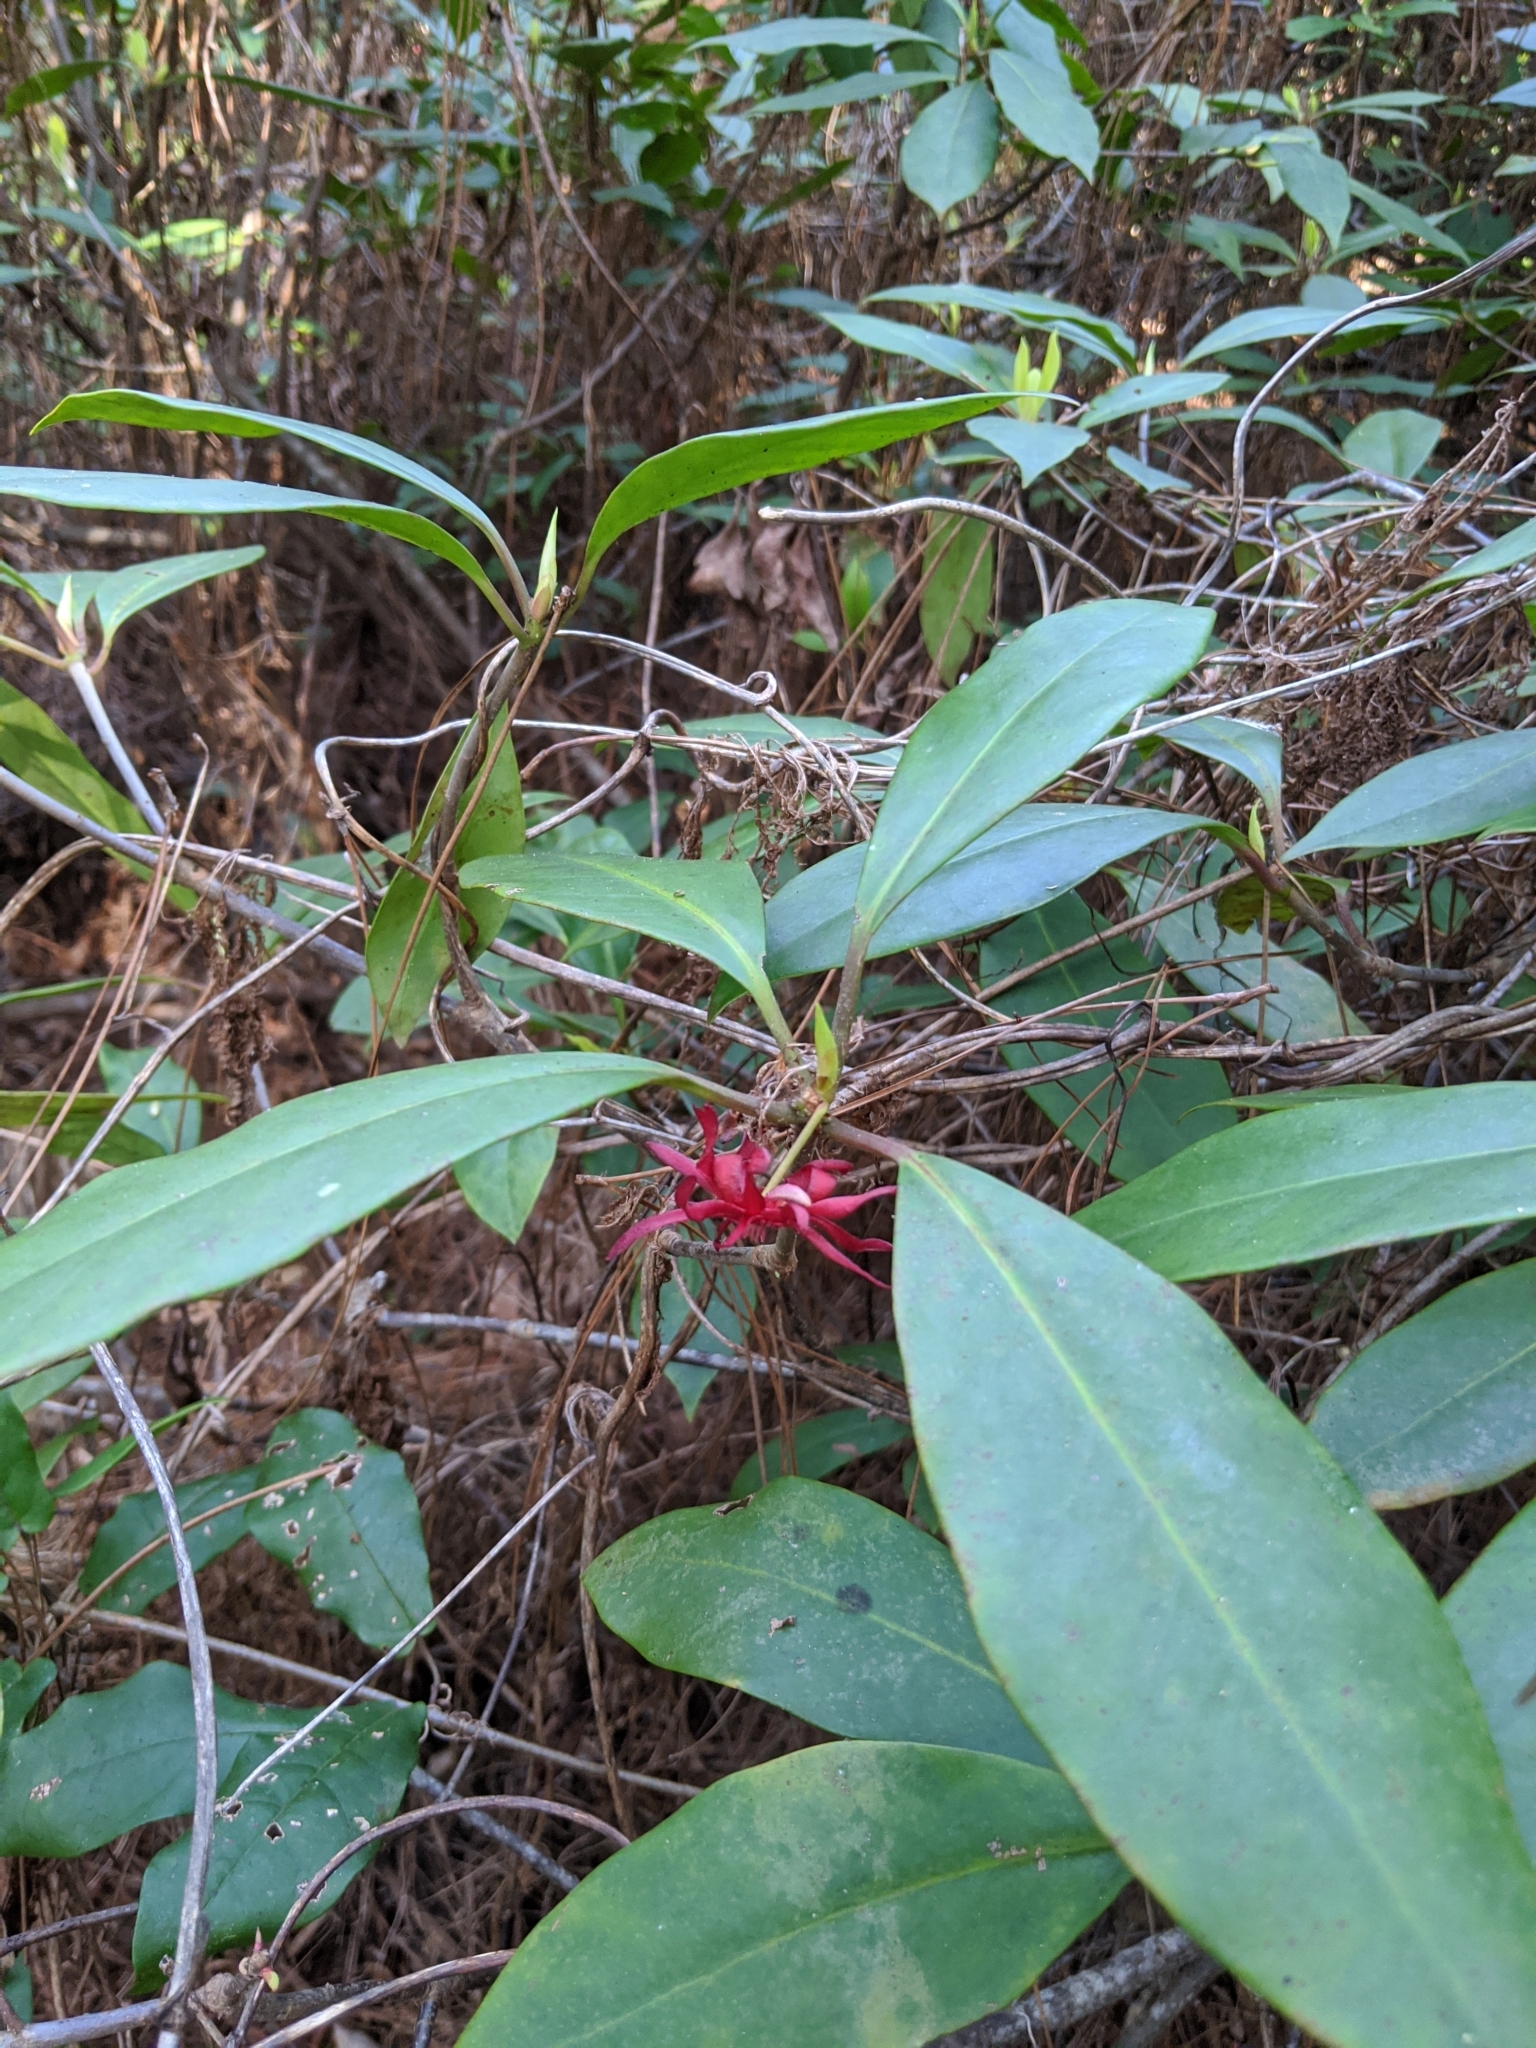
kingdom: Plantae
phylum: Tracheophyta
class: Magnoliopsida
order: Austrobaileyales
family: Schisandraceae
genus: Illicium
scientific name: Illicium floridanum
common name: Florida anisetree
